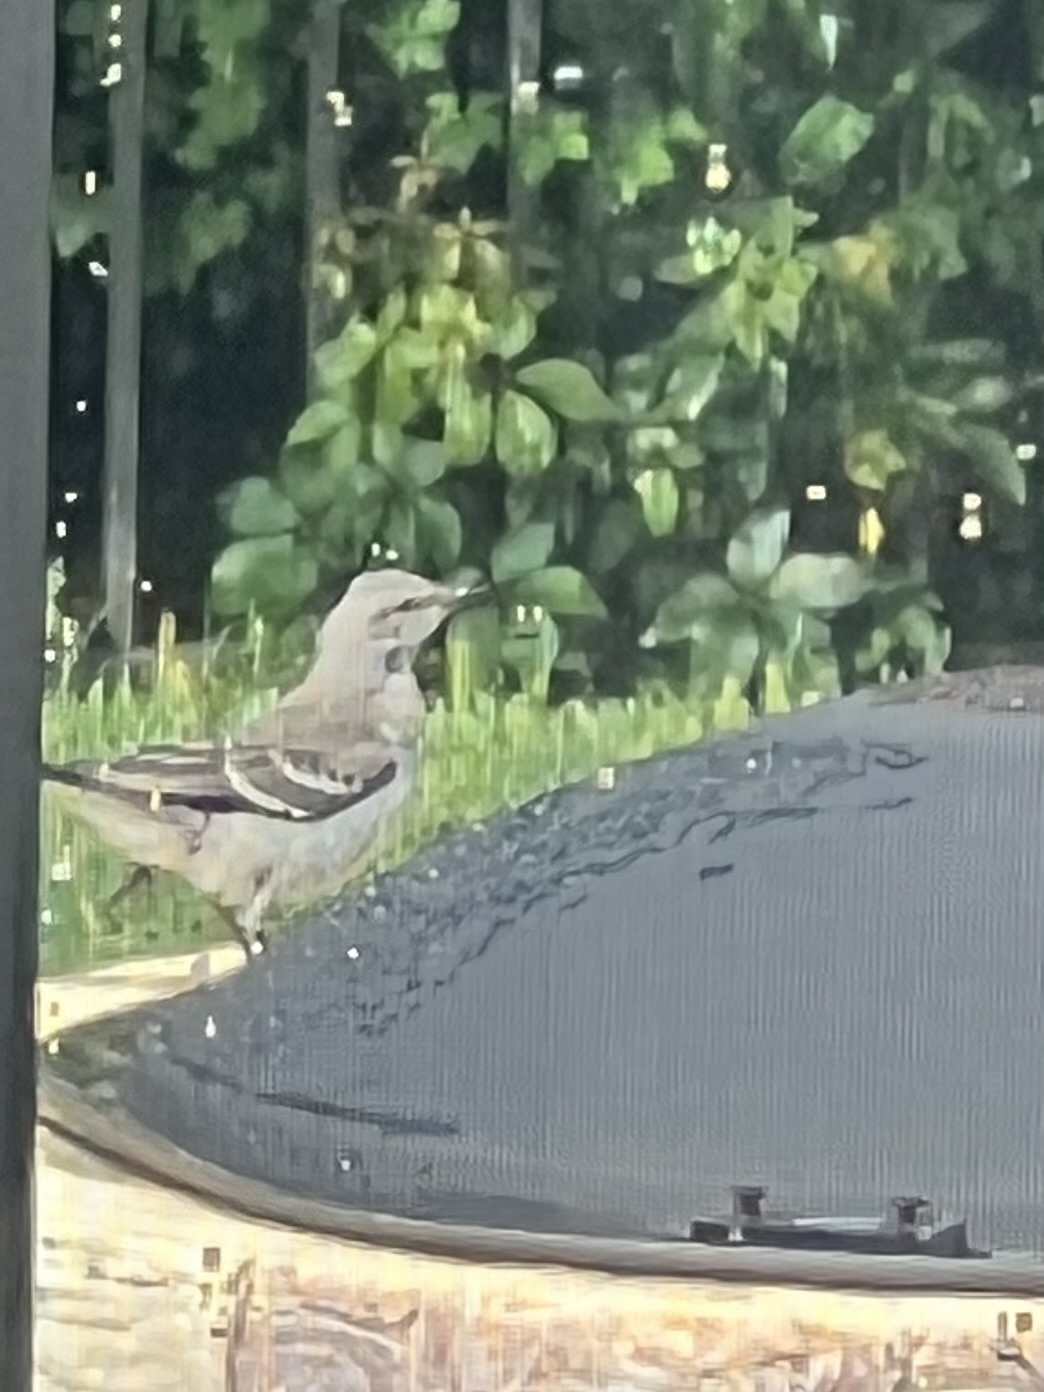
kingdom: Animalia
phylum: Chordata
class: Aves
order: Passeriformes
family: Mimidae
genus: Mimus
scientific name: Mimus polyglottos
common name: Northern mockingbird
